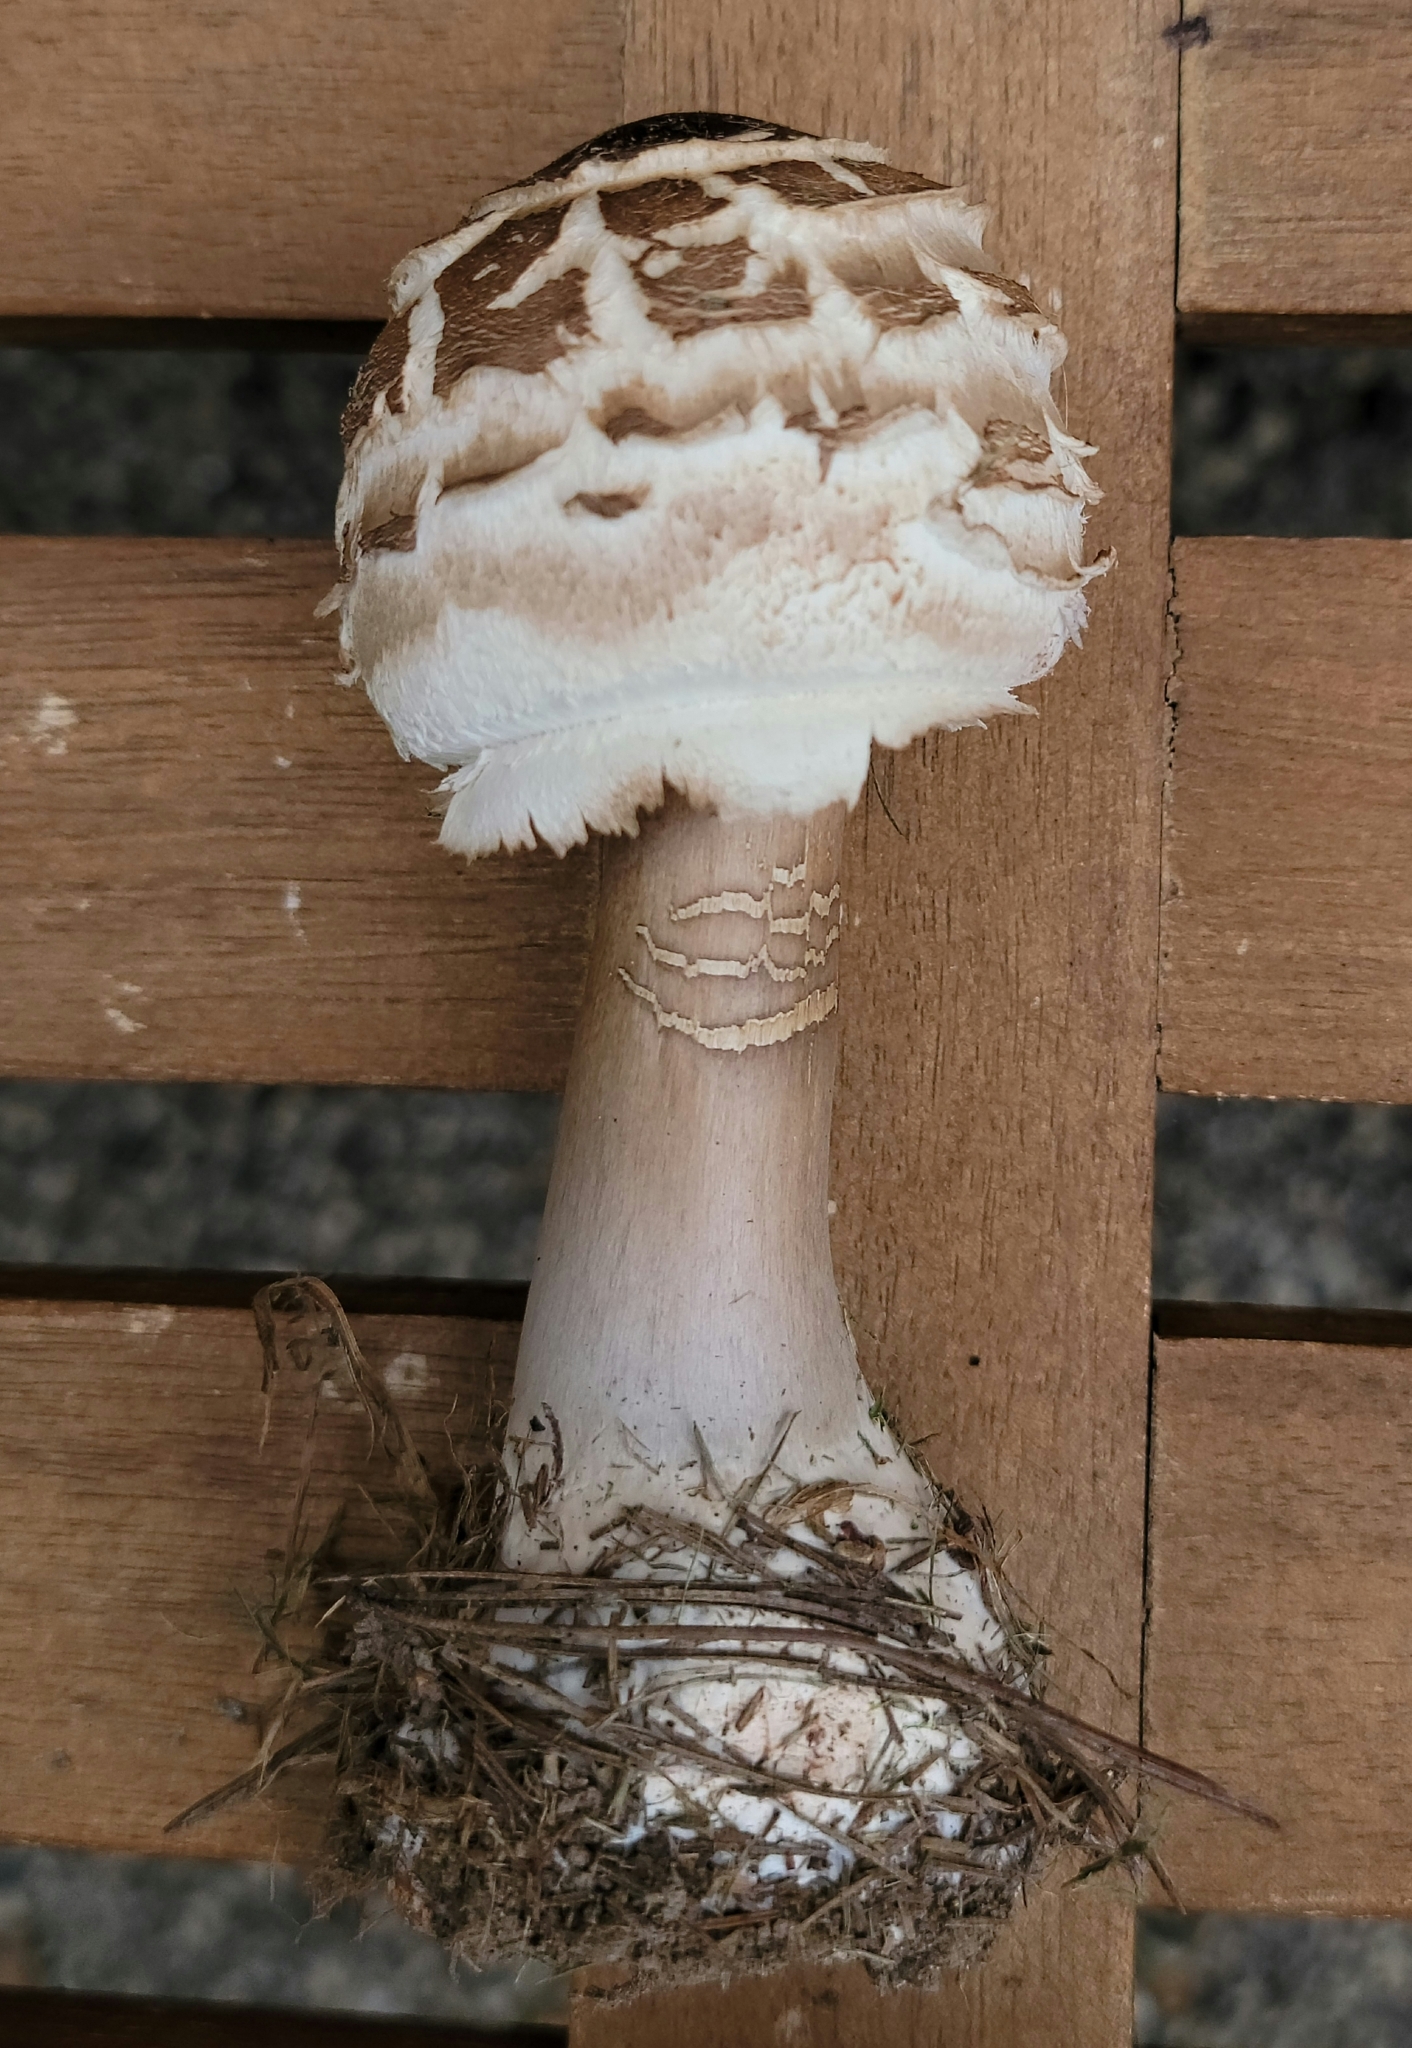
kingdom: Fungi
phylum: Basidiomycota
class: Agaricomycetes
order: Agaricales
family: Agaricaceae
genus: Chlorophyllum
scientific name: Chlorophyllum rhacodes
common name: Shaggy parasol
